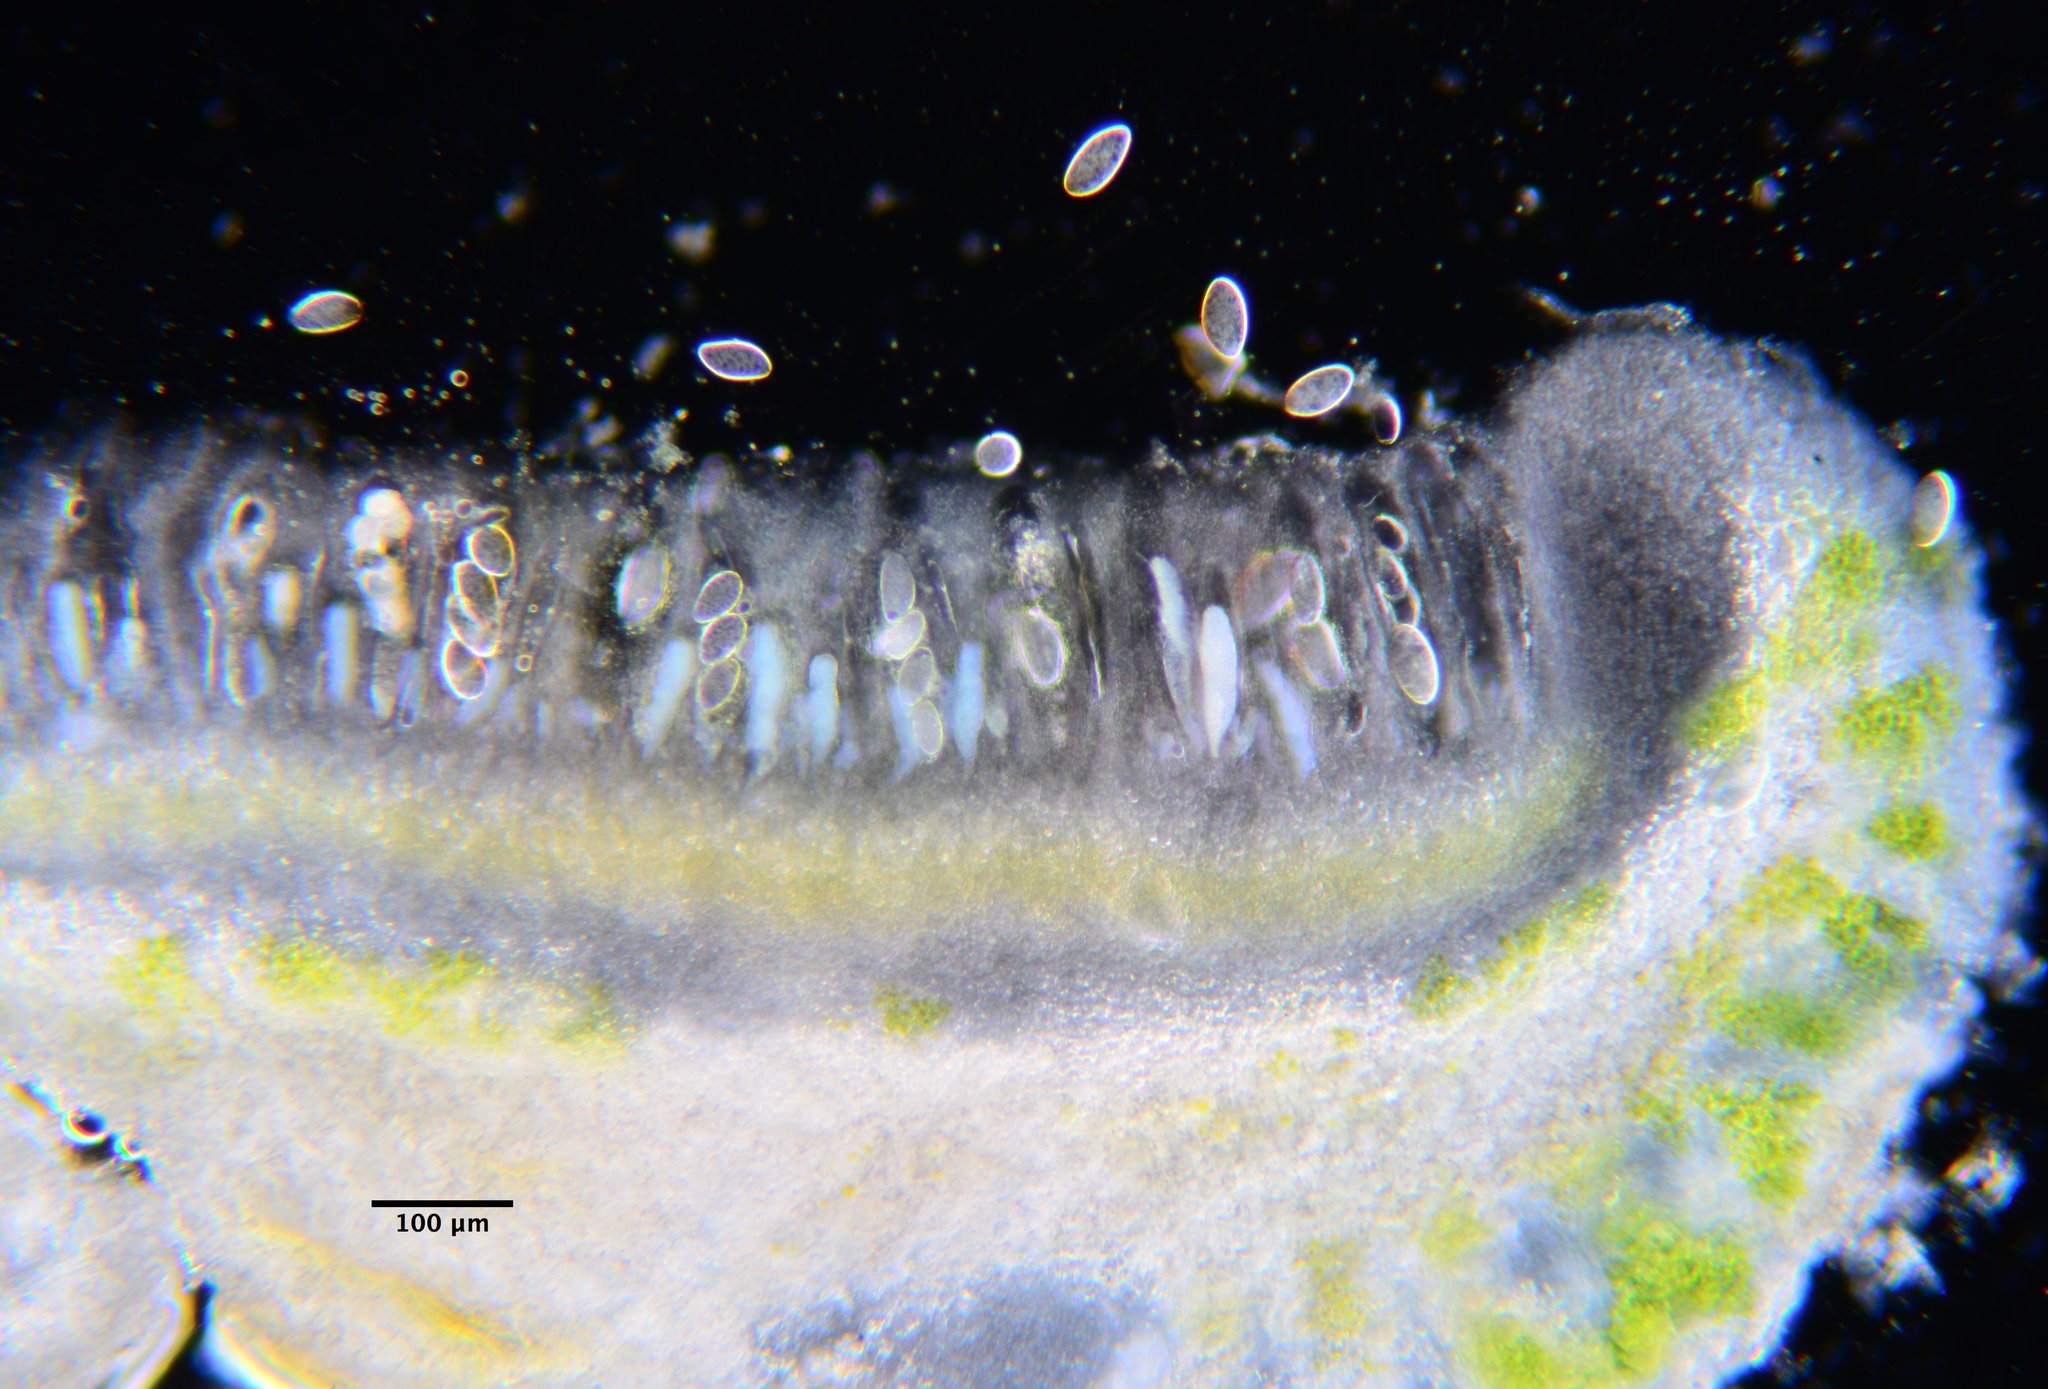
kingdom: Fungi
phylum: Ascomycota
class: Lecanoromycetes
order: Pertusariales
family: Ochrolechiaceae
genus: Ochrolechia
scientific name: Ochrolechia subpallescens
